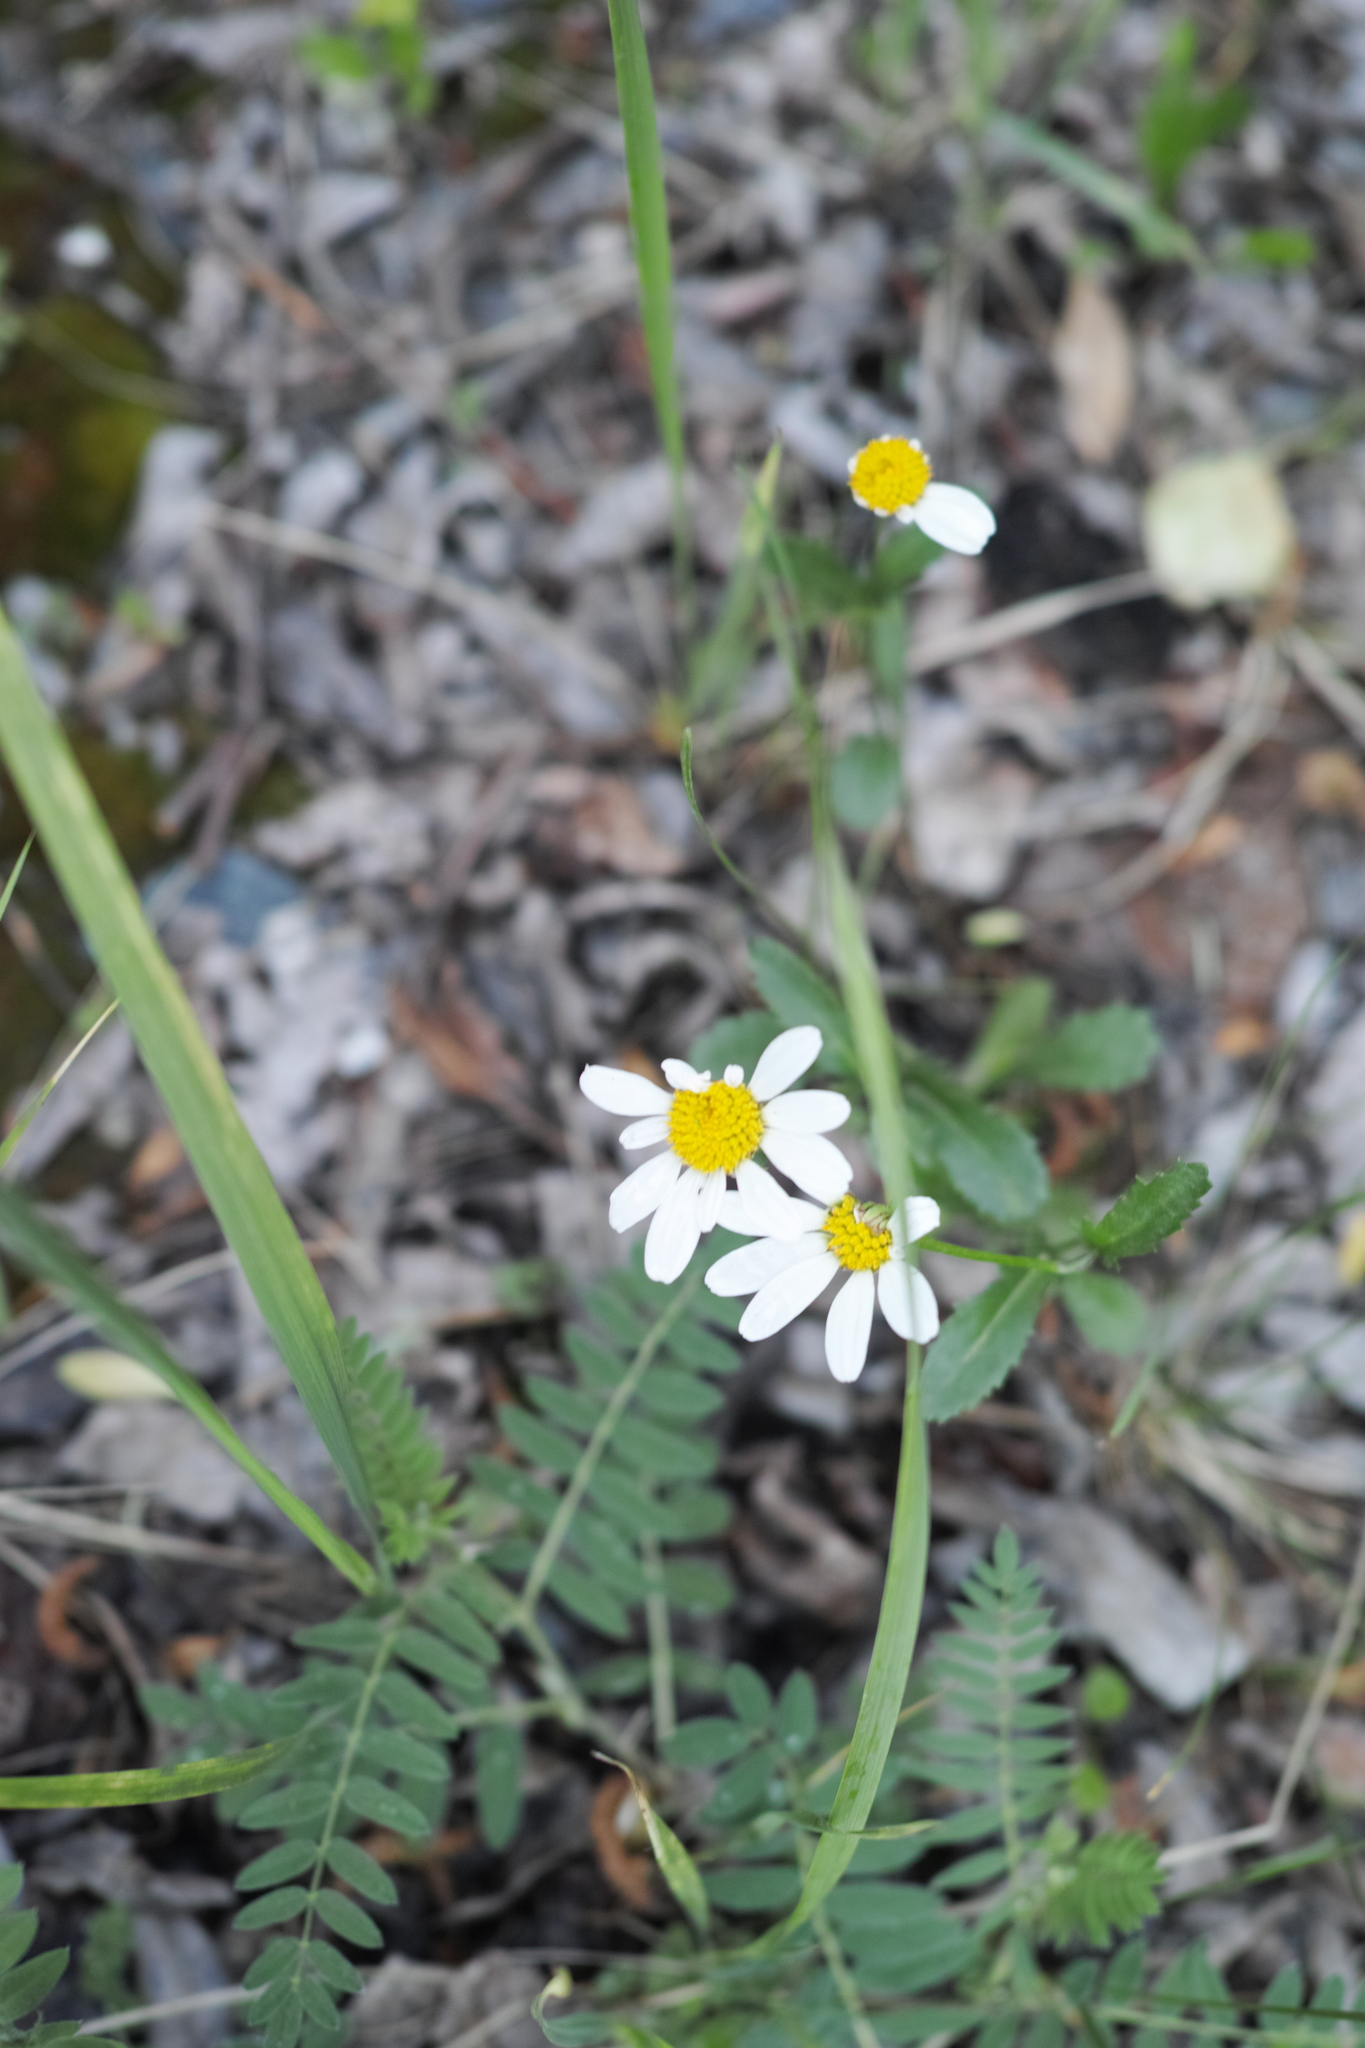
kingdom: Plantae
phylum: Tracheophyta
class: Magnoliopsida
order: Asterales
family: Asteraceae
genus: Leucanthemum
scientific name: Leucanthemum vulgare
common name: Oxeye daisy
